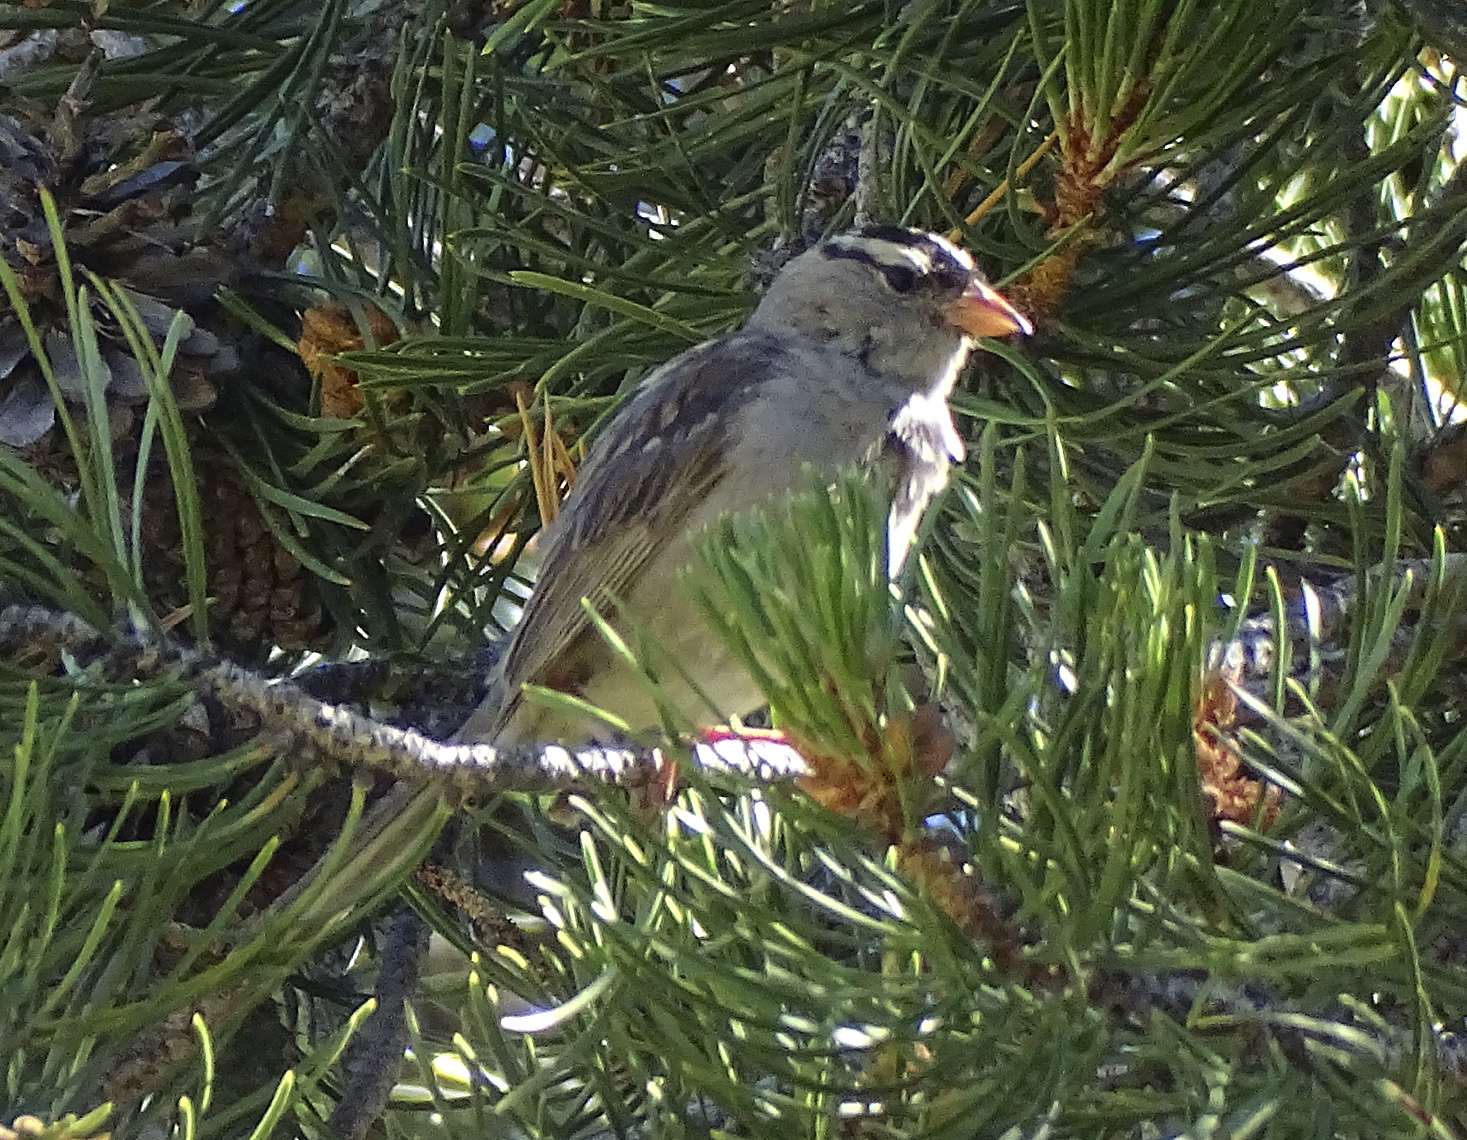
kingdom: Animalia
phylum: Chordata
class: Aves
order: Passeriformes
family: Passerellidae
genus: Zonotrichia
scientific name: Zonotrichia leucophrys
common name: White-crowned sparrow
